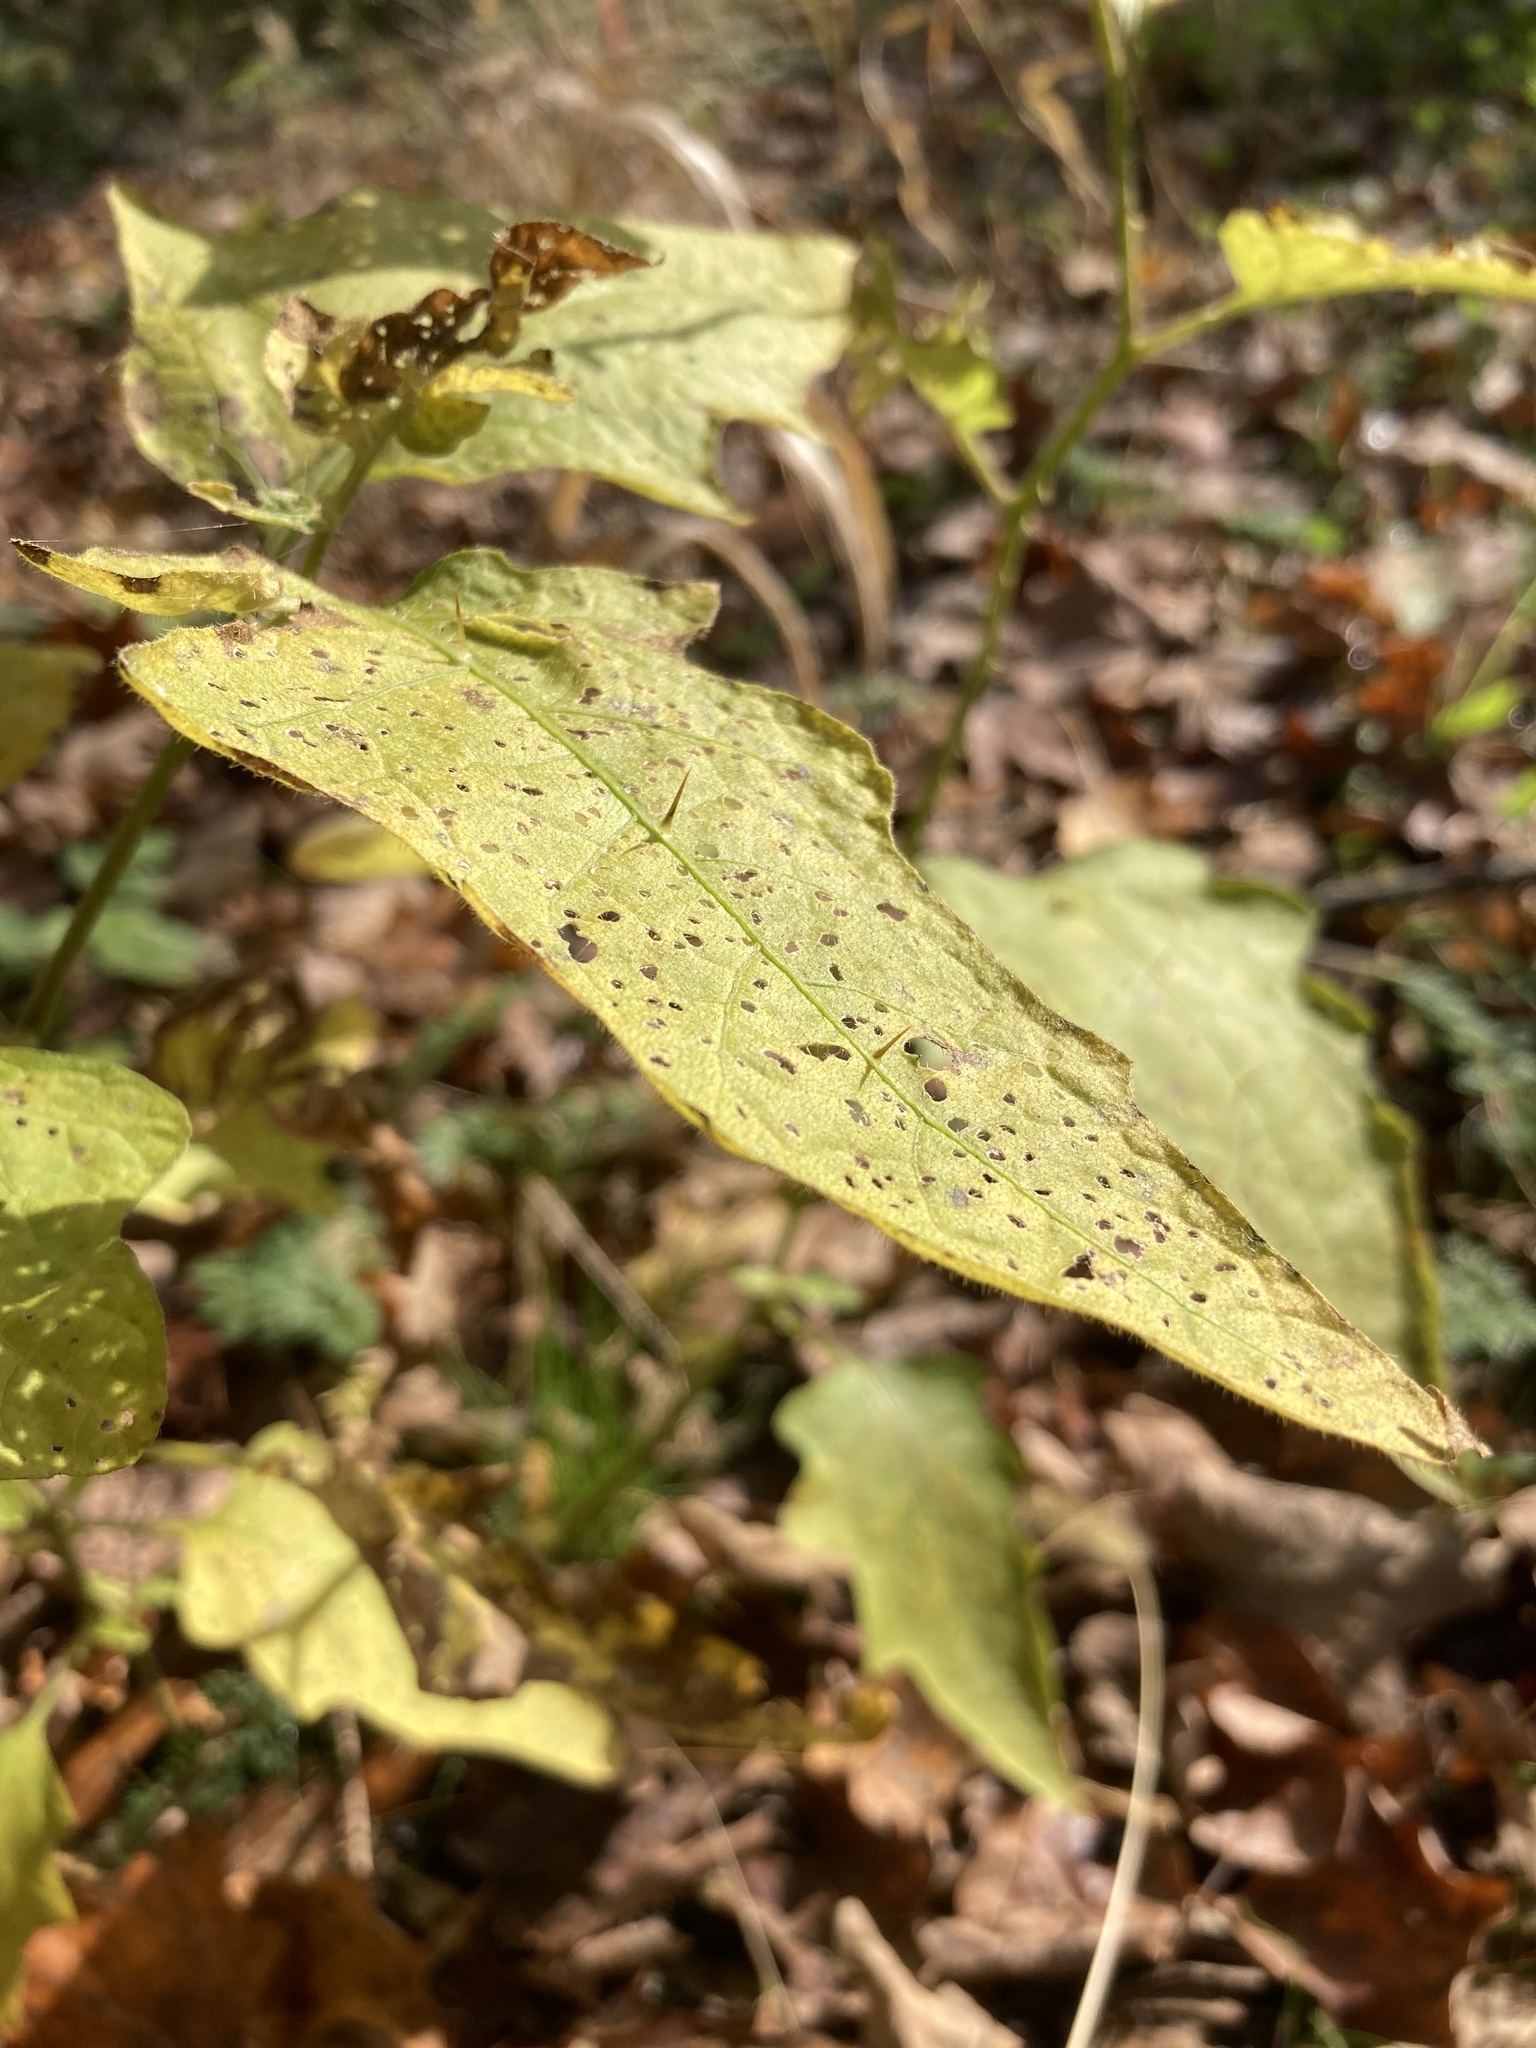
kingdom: Plantae
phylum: Tracheophyta
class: Magnoliopsida
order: Solanales
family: Solanaceae
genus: Solanum
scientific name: Solanum carolinense
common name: Horse-nettle
